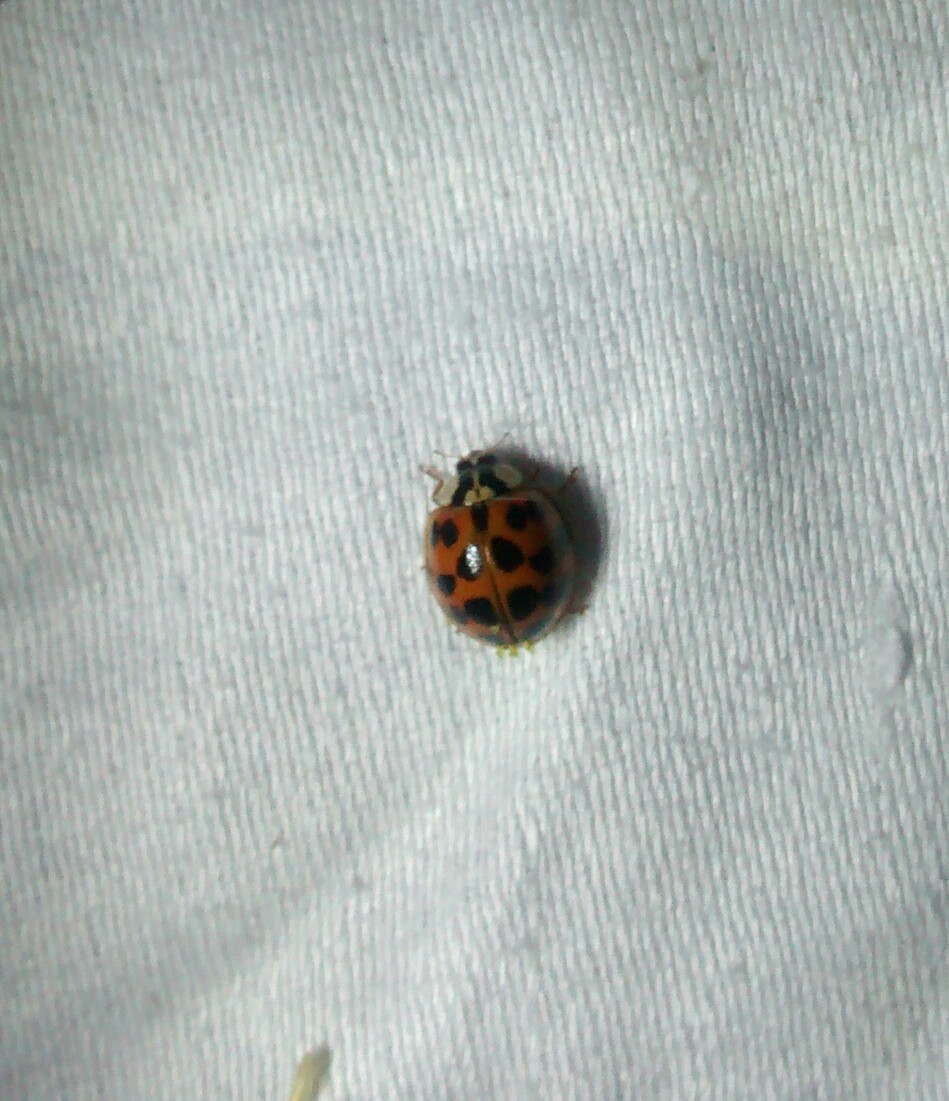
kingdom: Animalia
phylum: Arthropoda
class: Insecta
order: Coleoptera
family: Coccinellidae
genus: Harmonia
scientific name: Harmonia axyridis
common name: Harlequin ladybird
